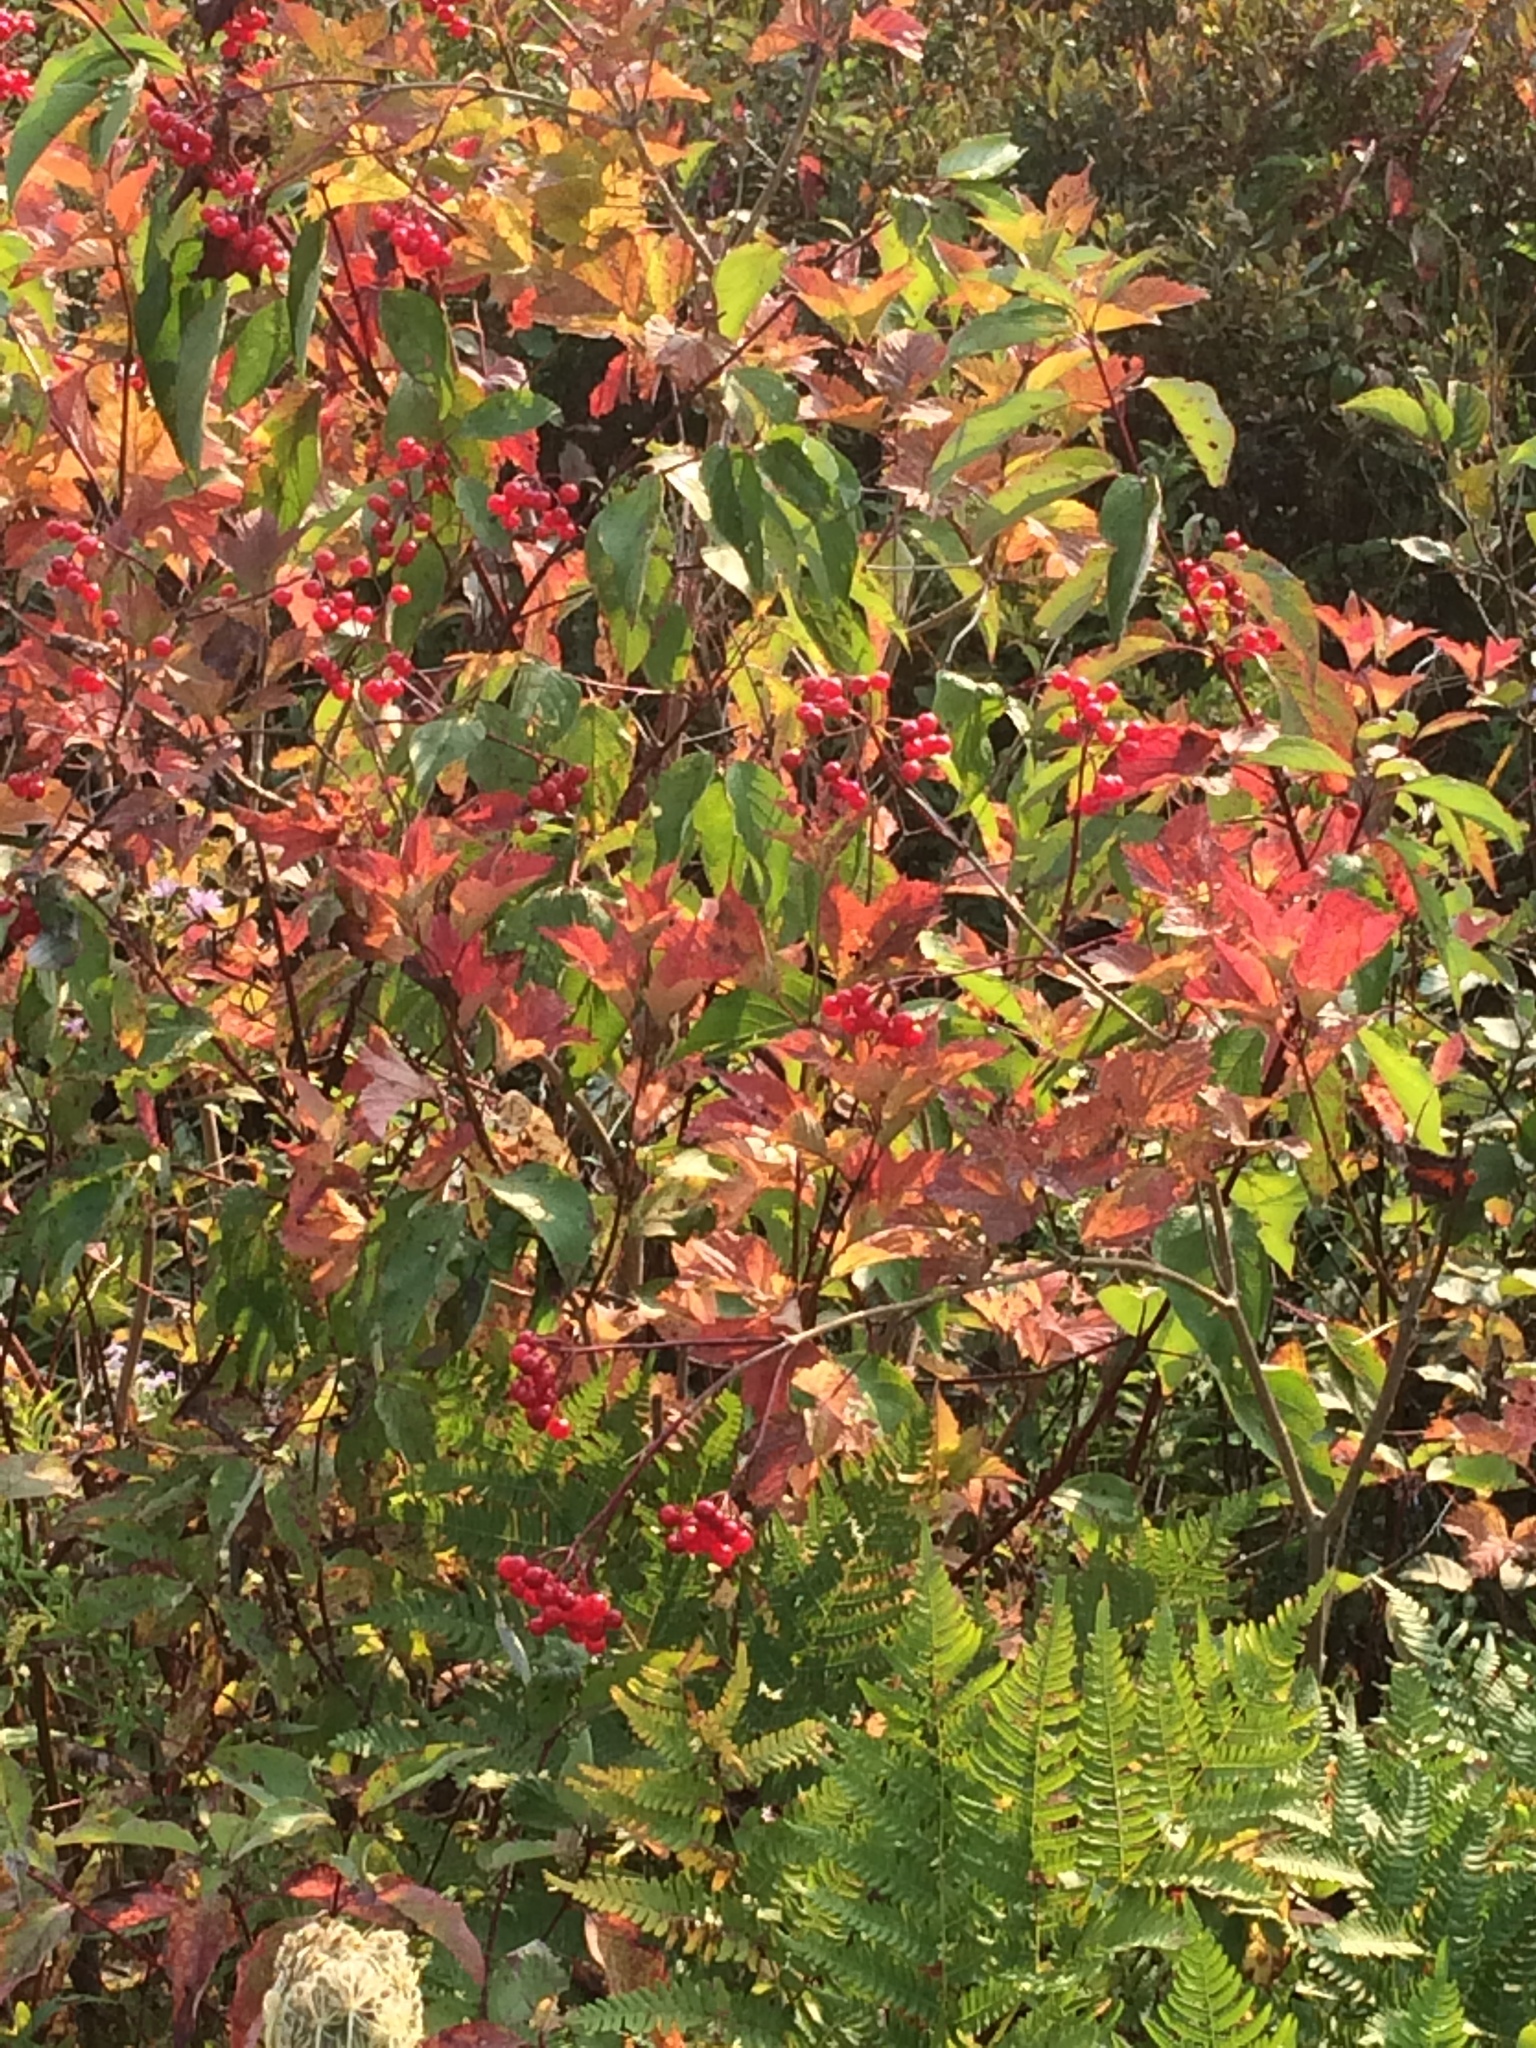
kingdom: Plantae
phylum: Tracheophyta
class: Magnoliopsida
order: Dipsacales
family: Viburnaceae
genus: Viburnum
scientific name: Viburnum opulus
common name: Guelder-rose
